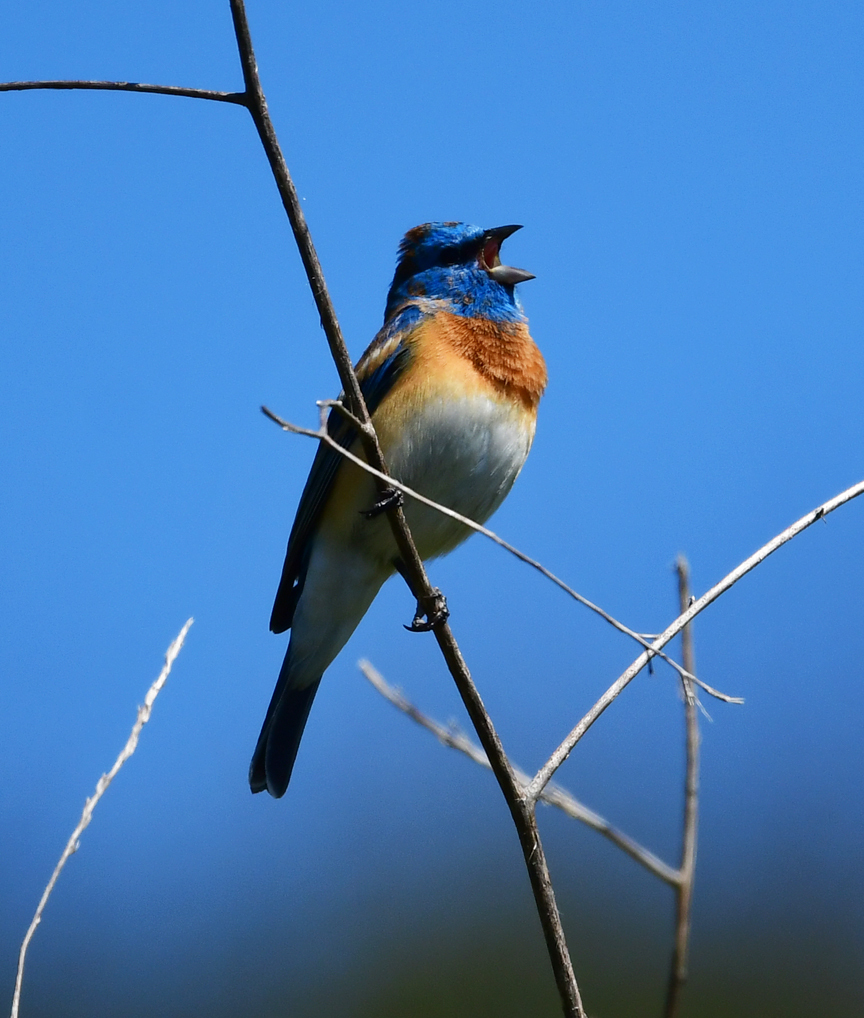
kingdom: Animalia
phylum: Chordata
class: Aves
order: Passeriformes
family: Cardinalidae
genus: Passerina
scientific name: Passerina amoena
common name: Lazuli bunting
